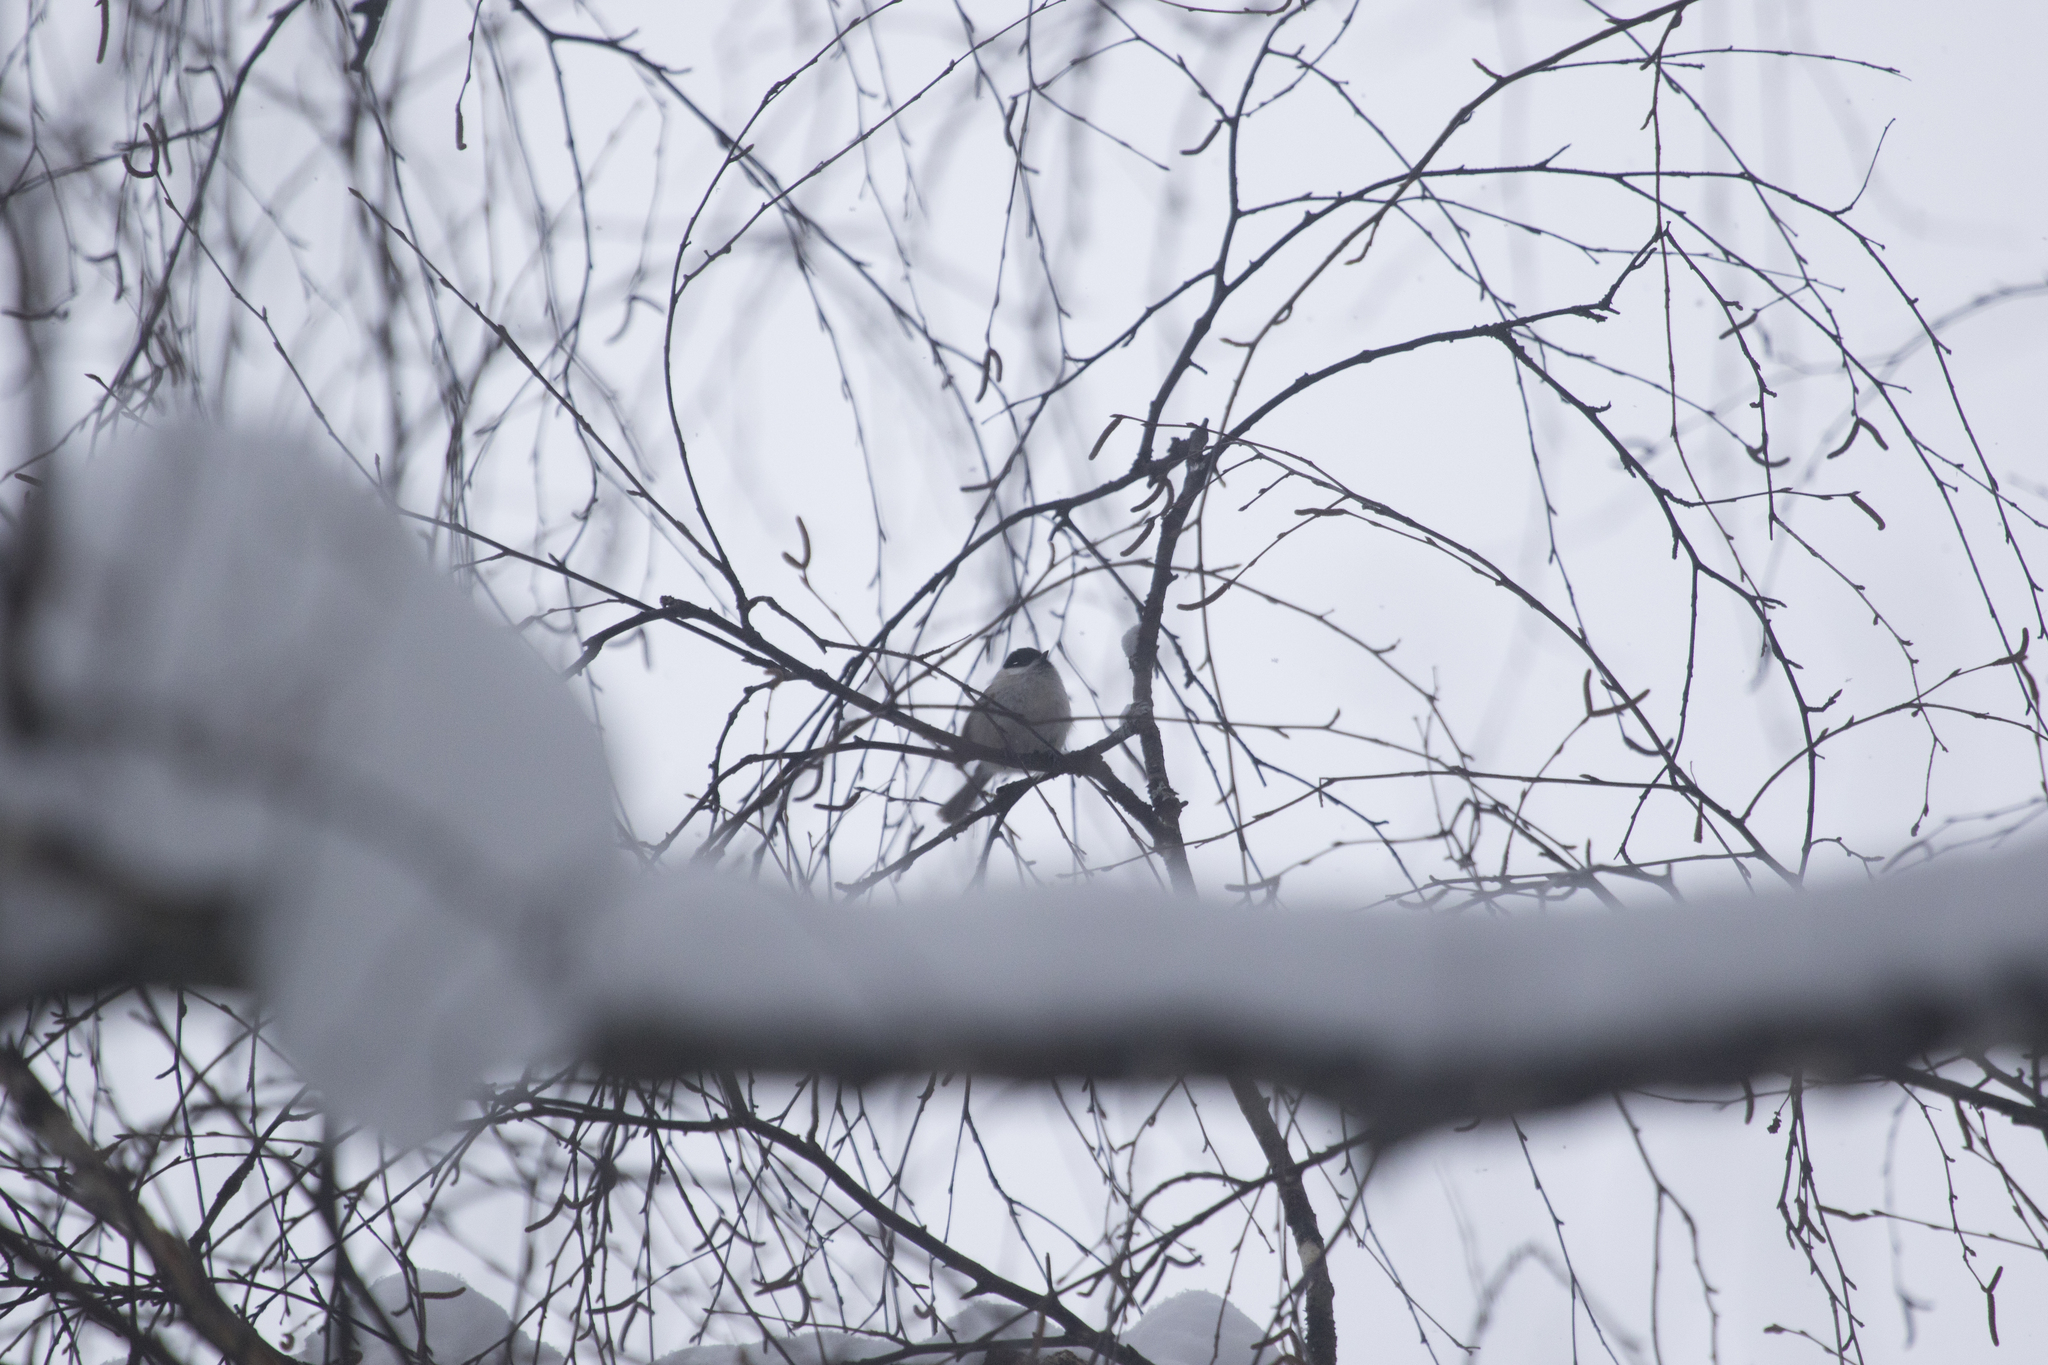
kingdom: Animalia
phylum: Chordata
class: Aves
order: Passeriformes
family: Paridae
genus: Poecile
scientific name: Poecile montanus
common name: Willow tit
